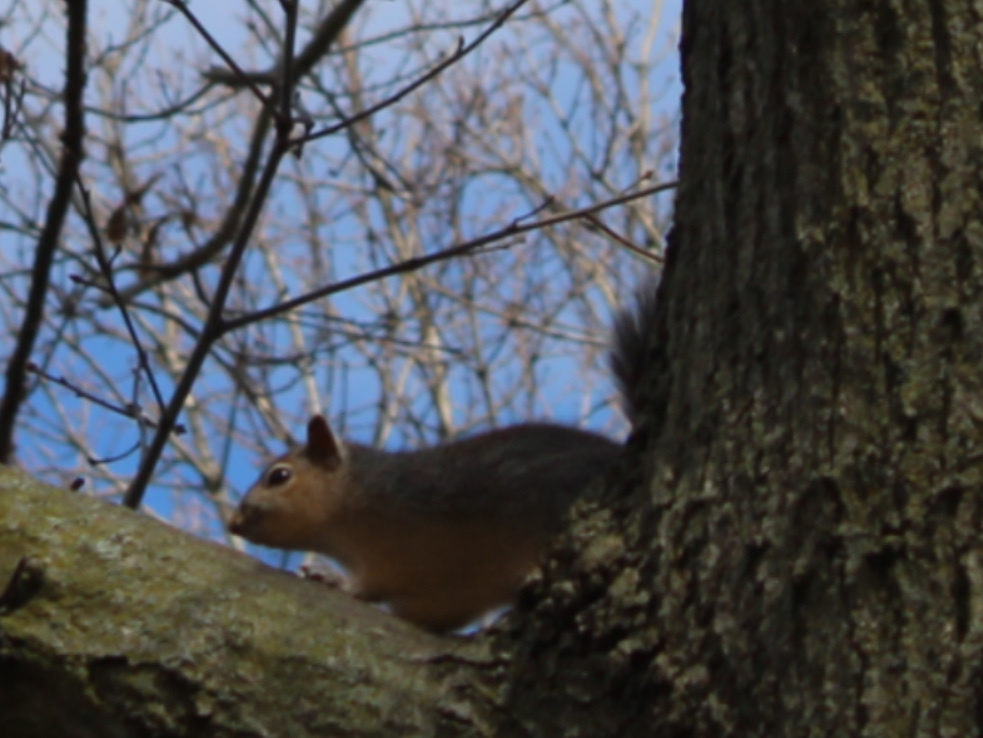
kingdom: Animalia
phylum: Chordata
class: Mammalia
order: Rodentia
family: Sciuridae
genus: Sciurus
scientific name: Sciurus niger
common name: Fox squirrel
